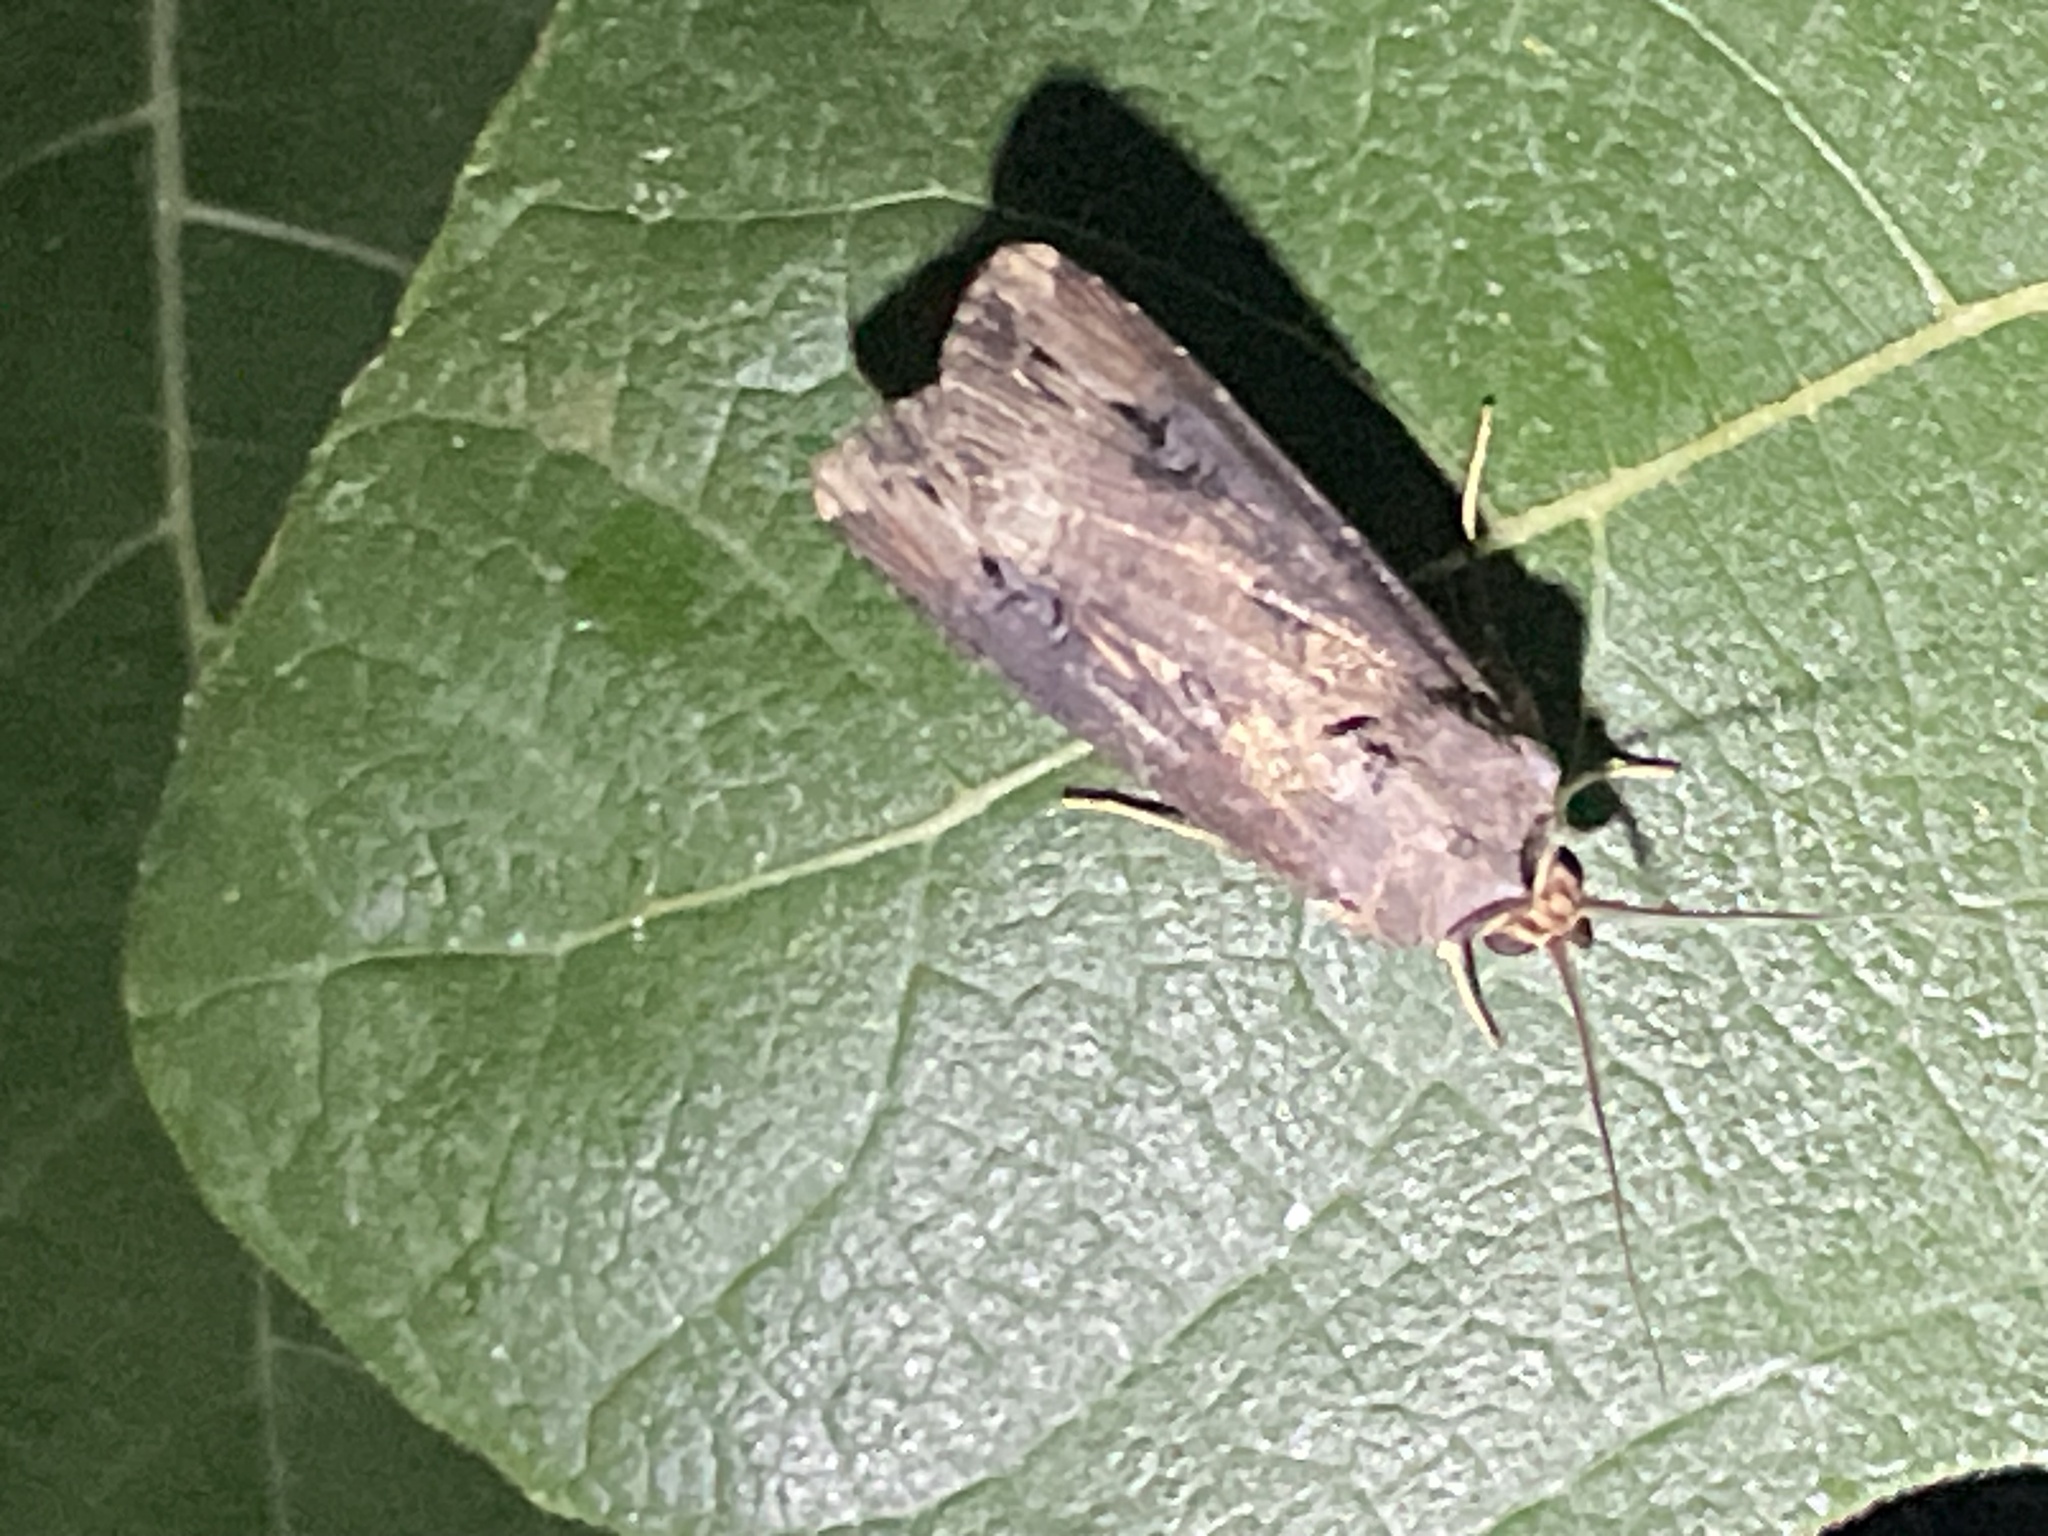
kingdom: Animalia
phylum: Arthropoda
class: Insecta
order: Lepidoptera
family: Noctuidae
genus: Agrotis
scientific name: Agrotis ipsilon
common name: Dark sword-grass
